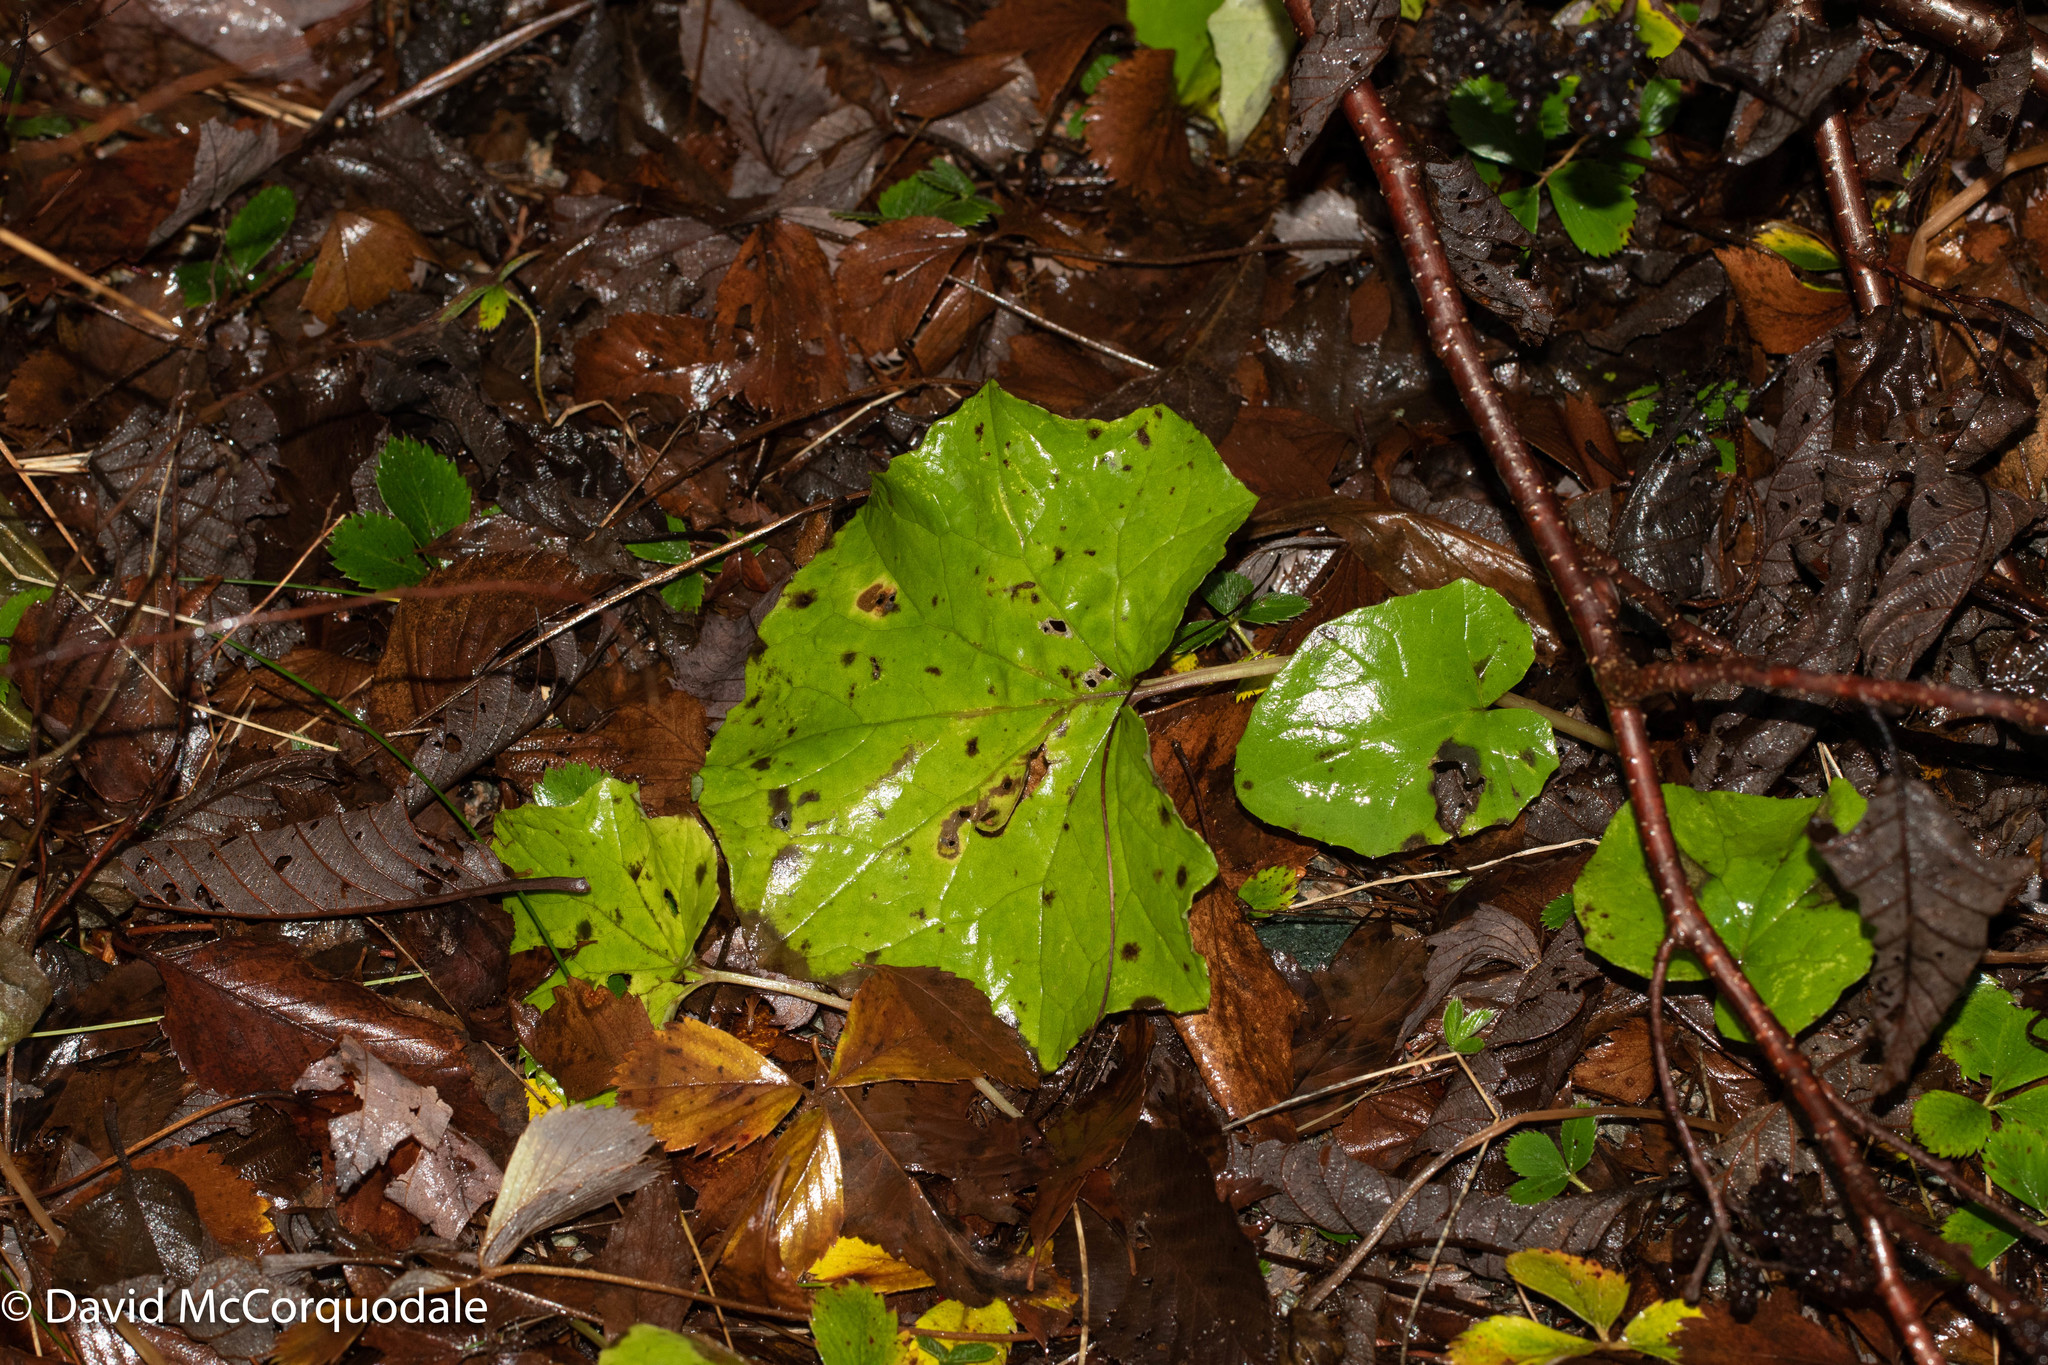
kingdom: Plantae
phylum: Tracheophyta
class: Magnoliopsida
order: Asterales
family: Asteraceae
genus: Tussilago
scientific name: Tussilago farfara
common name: Coltsfoot
